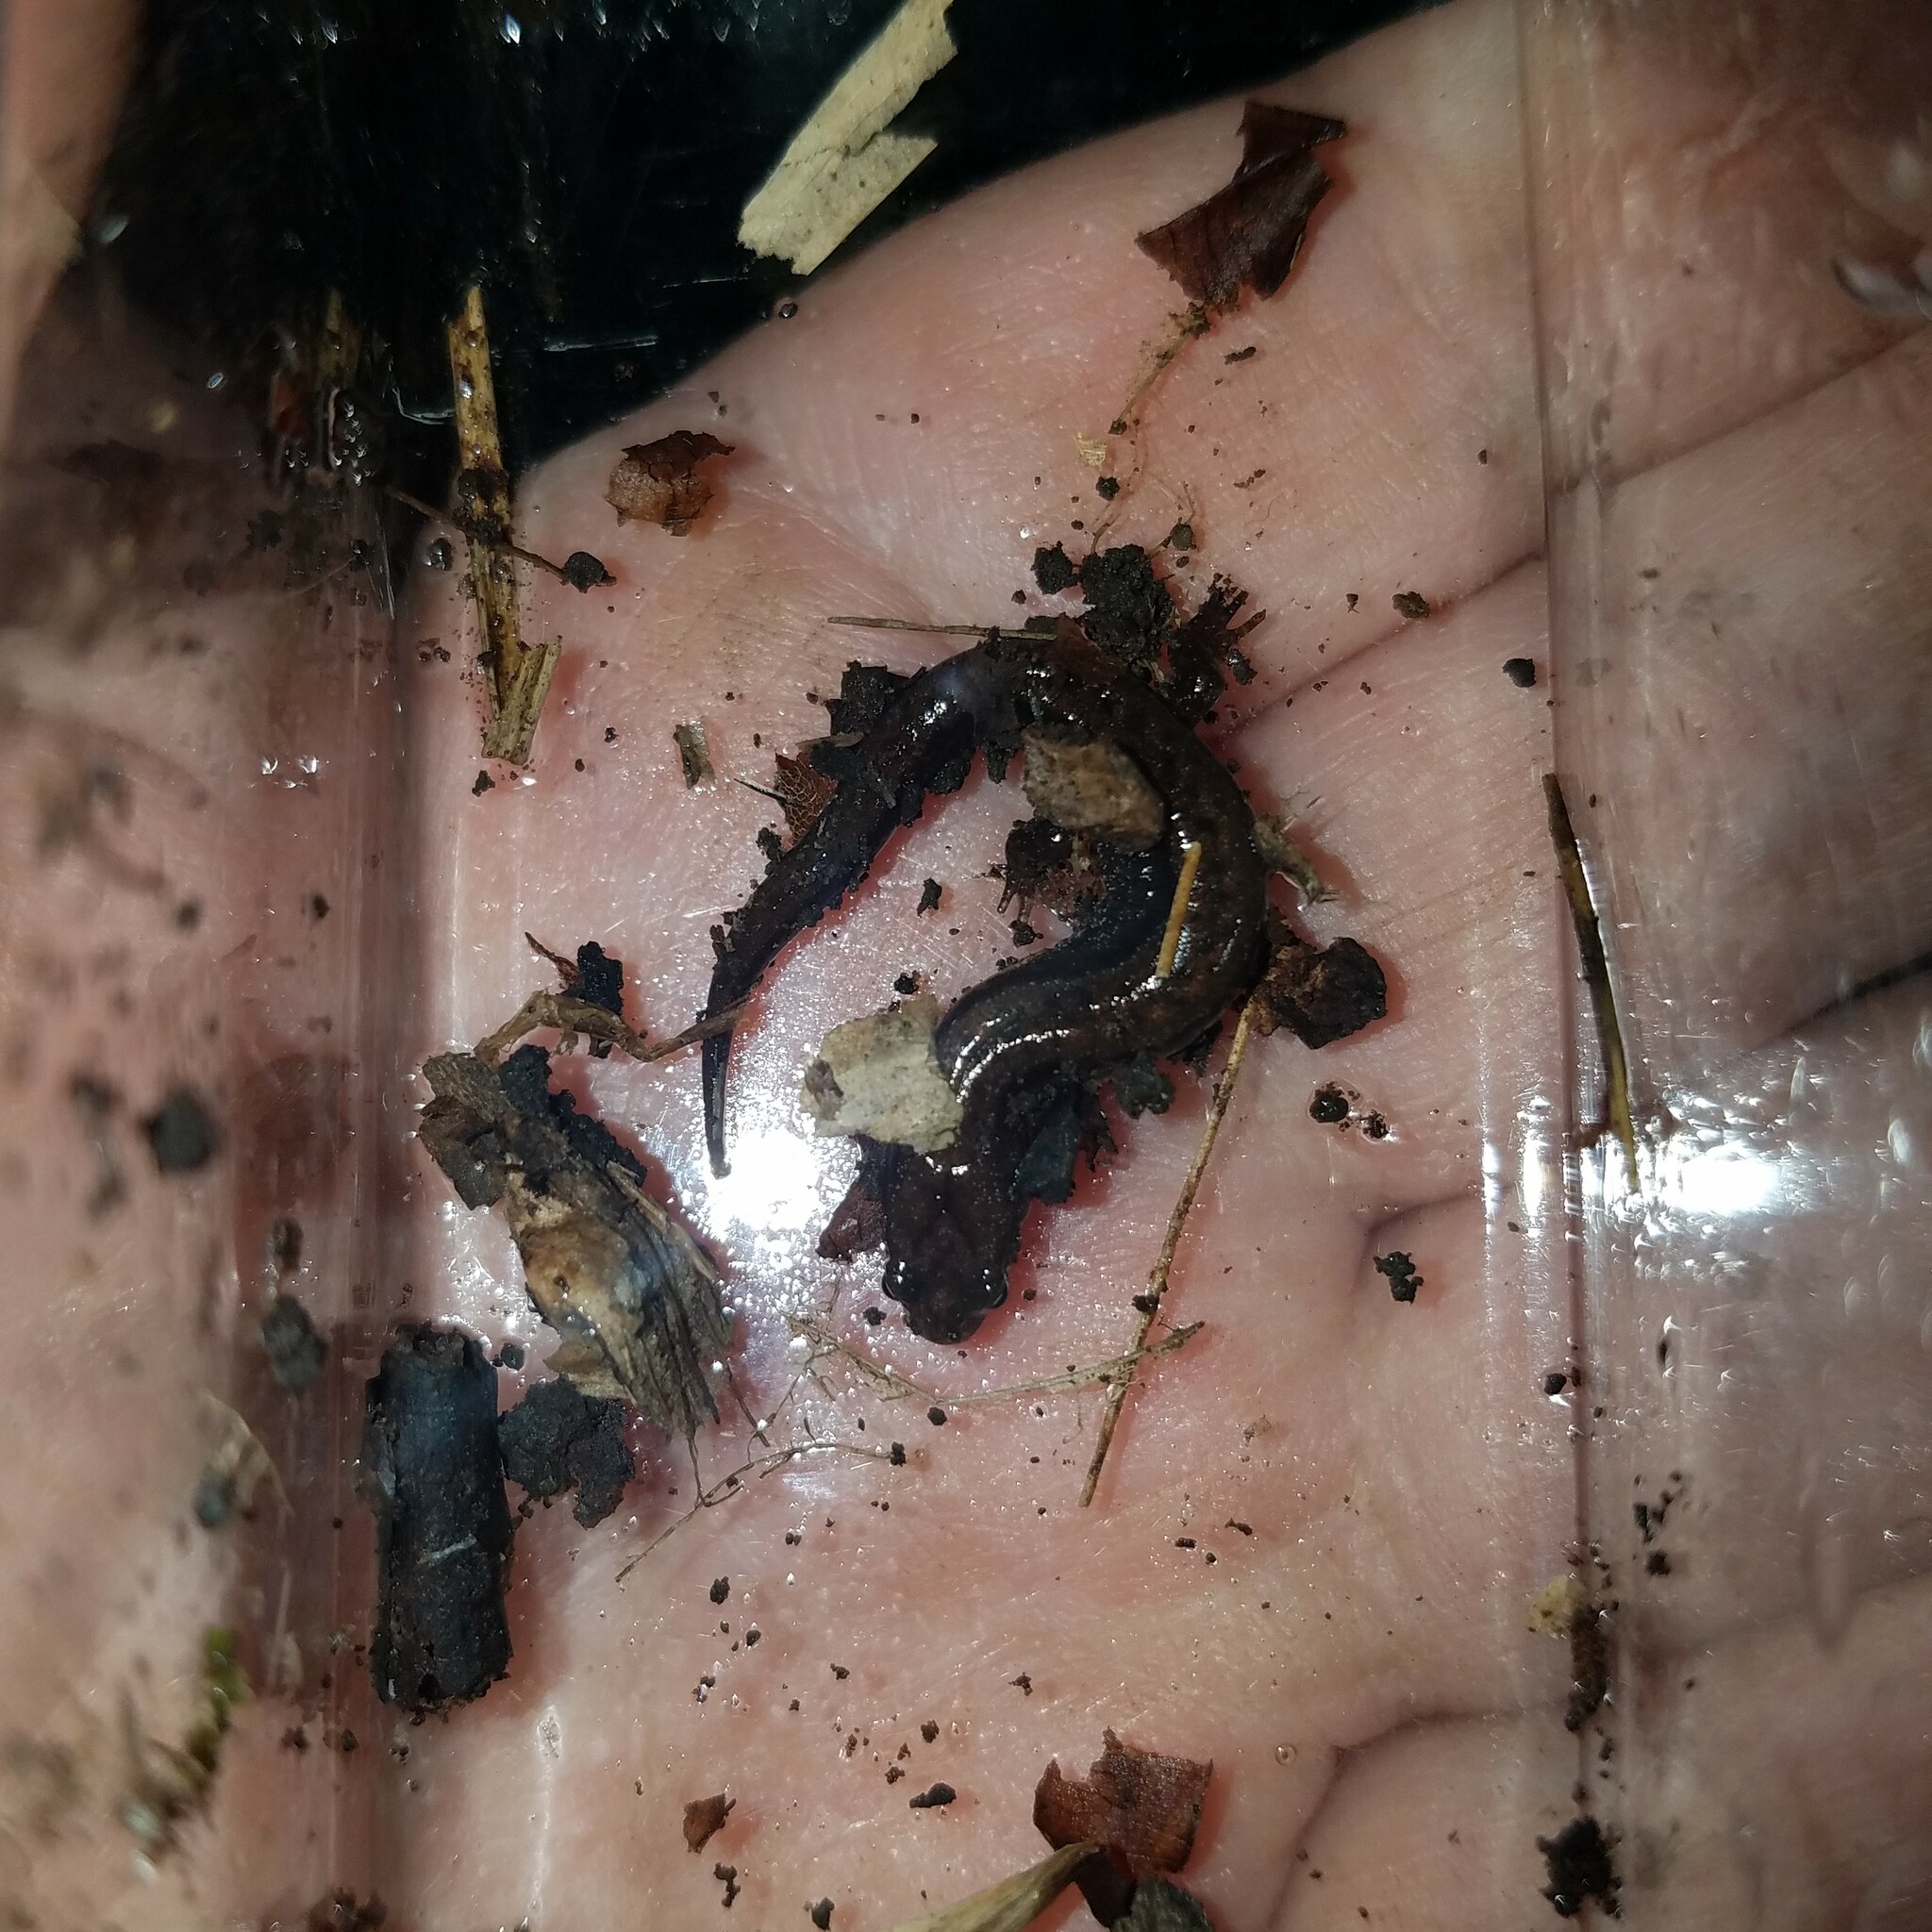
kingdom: Animalia
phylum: Chordata
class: Amphibia
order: Caudata
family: Plethodontidae
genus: Desmognathus
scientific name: Desmognathus aeneus
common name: Seepage salamander
